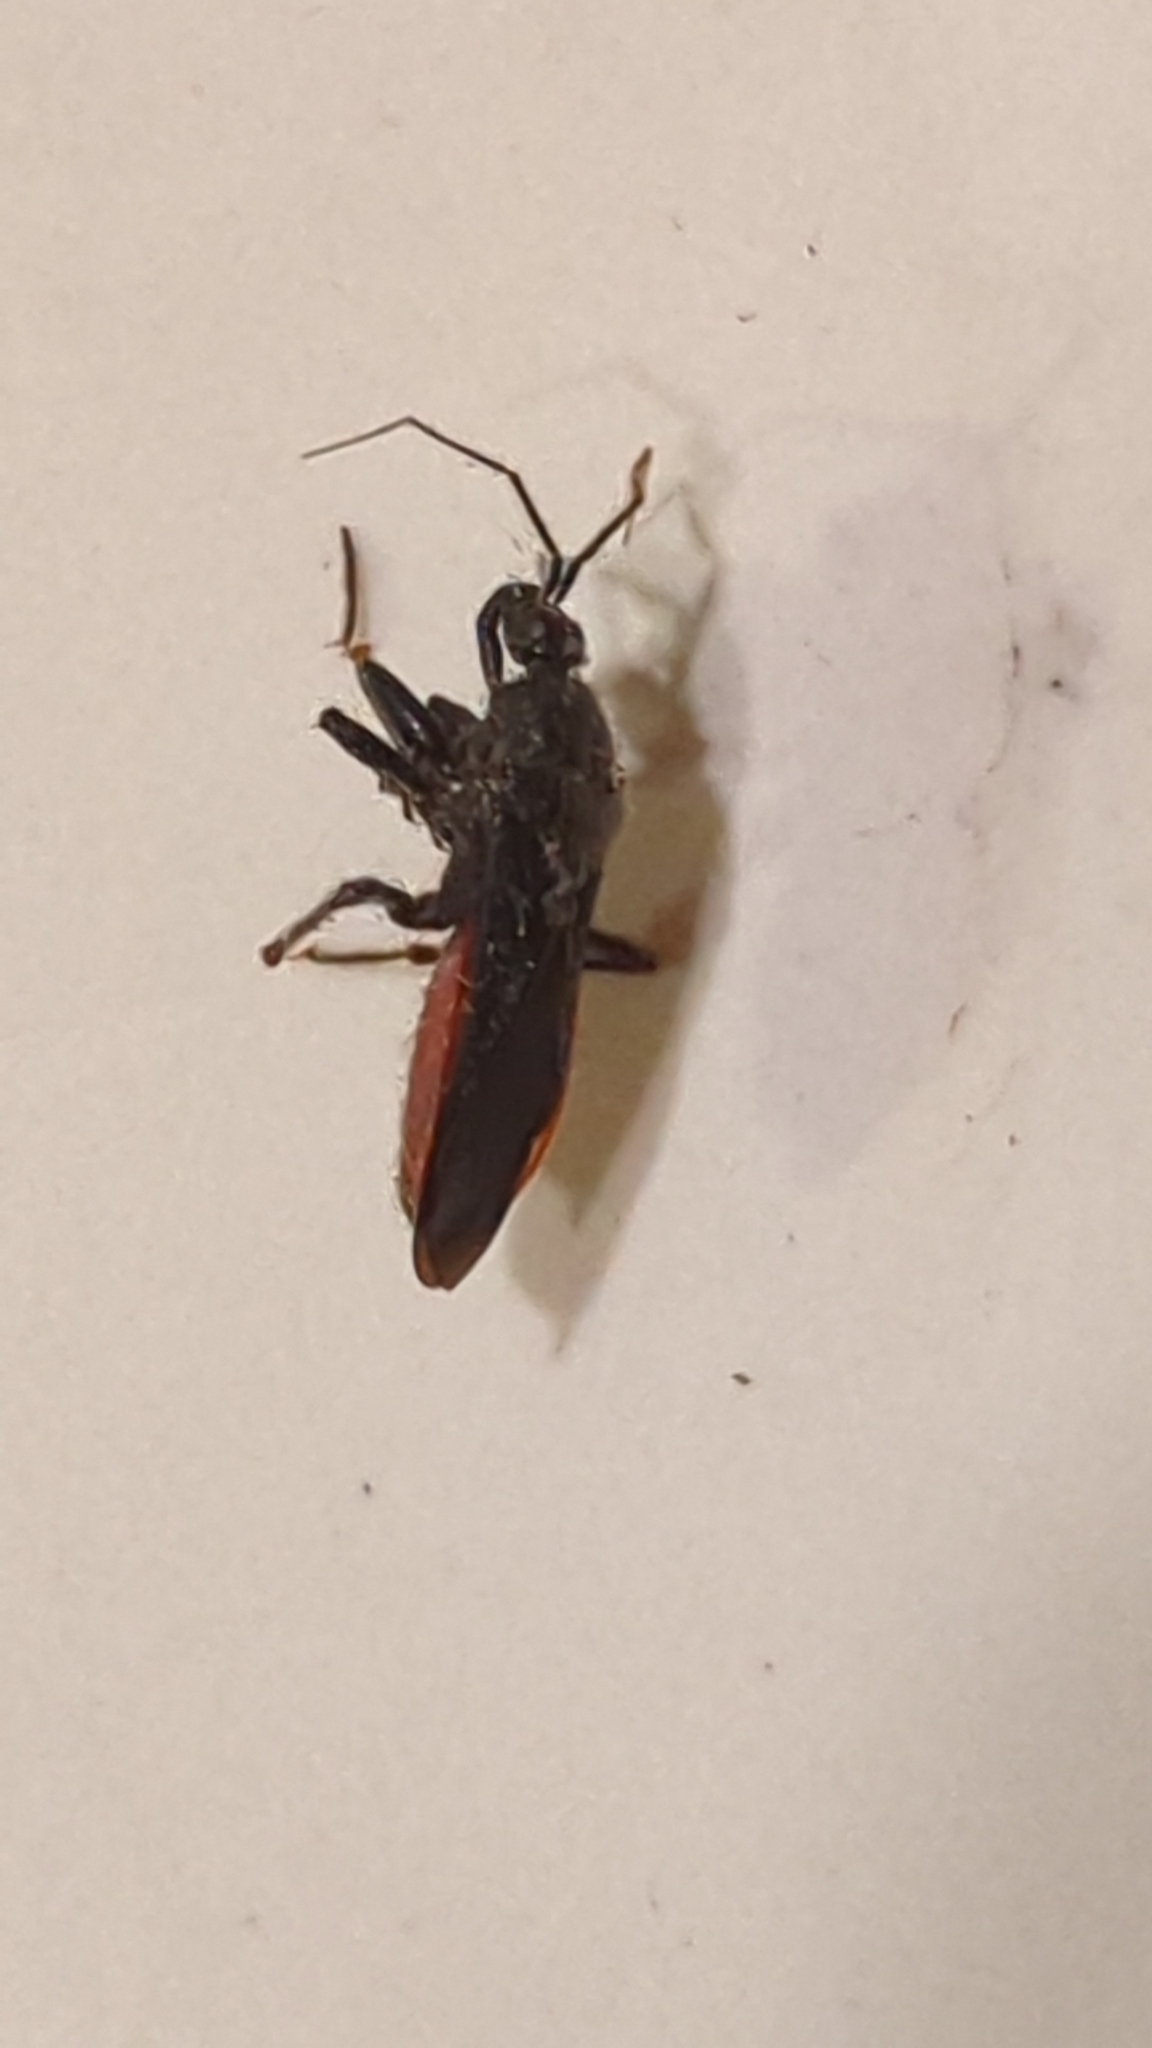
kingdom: Animalia
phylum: Arthropoda
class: Insecta
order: Hemiptera
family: Reduviidae
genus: Melanolestes
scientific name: Melanolestes picipes
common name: Assassin bug
